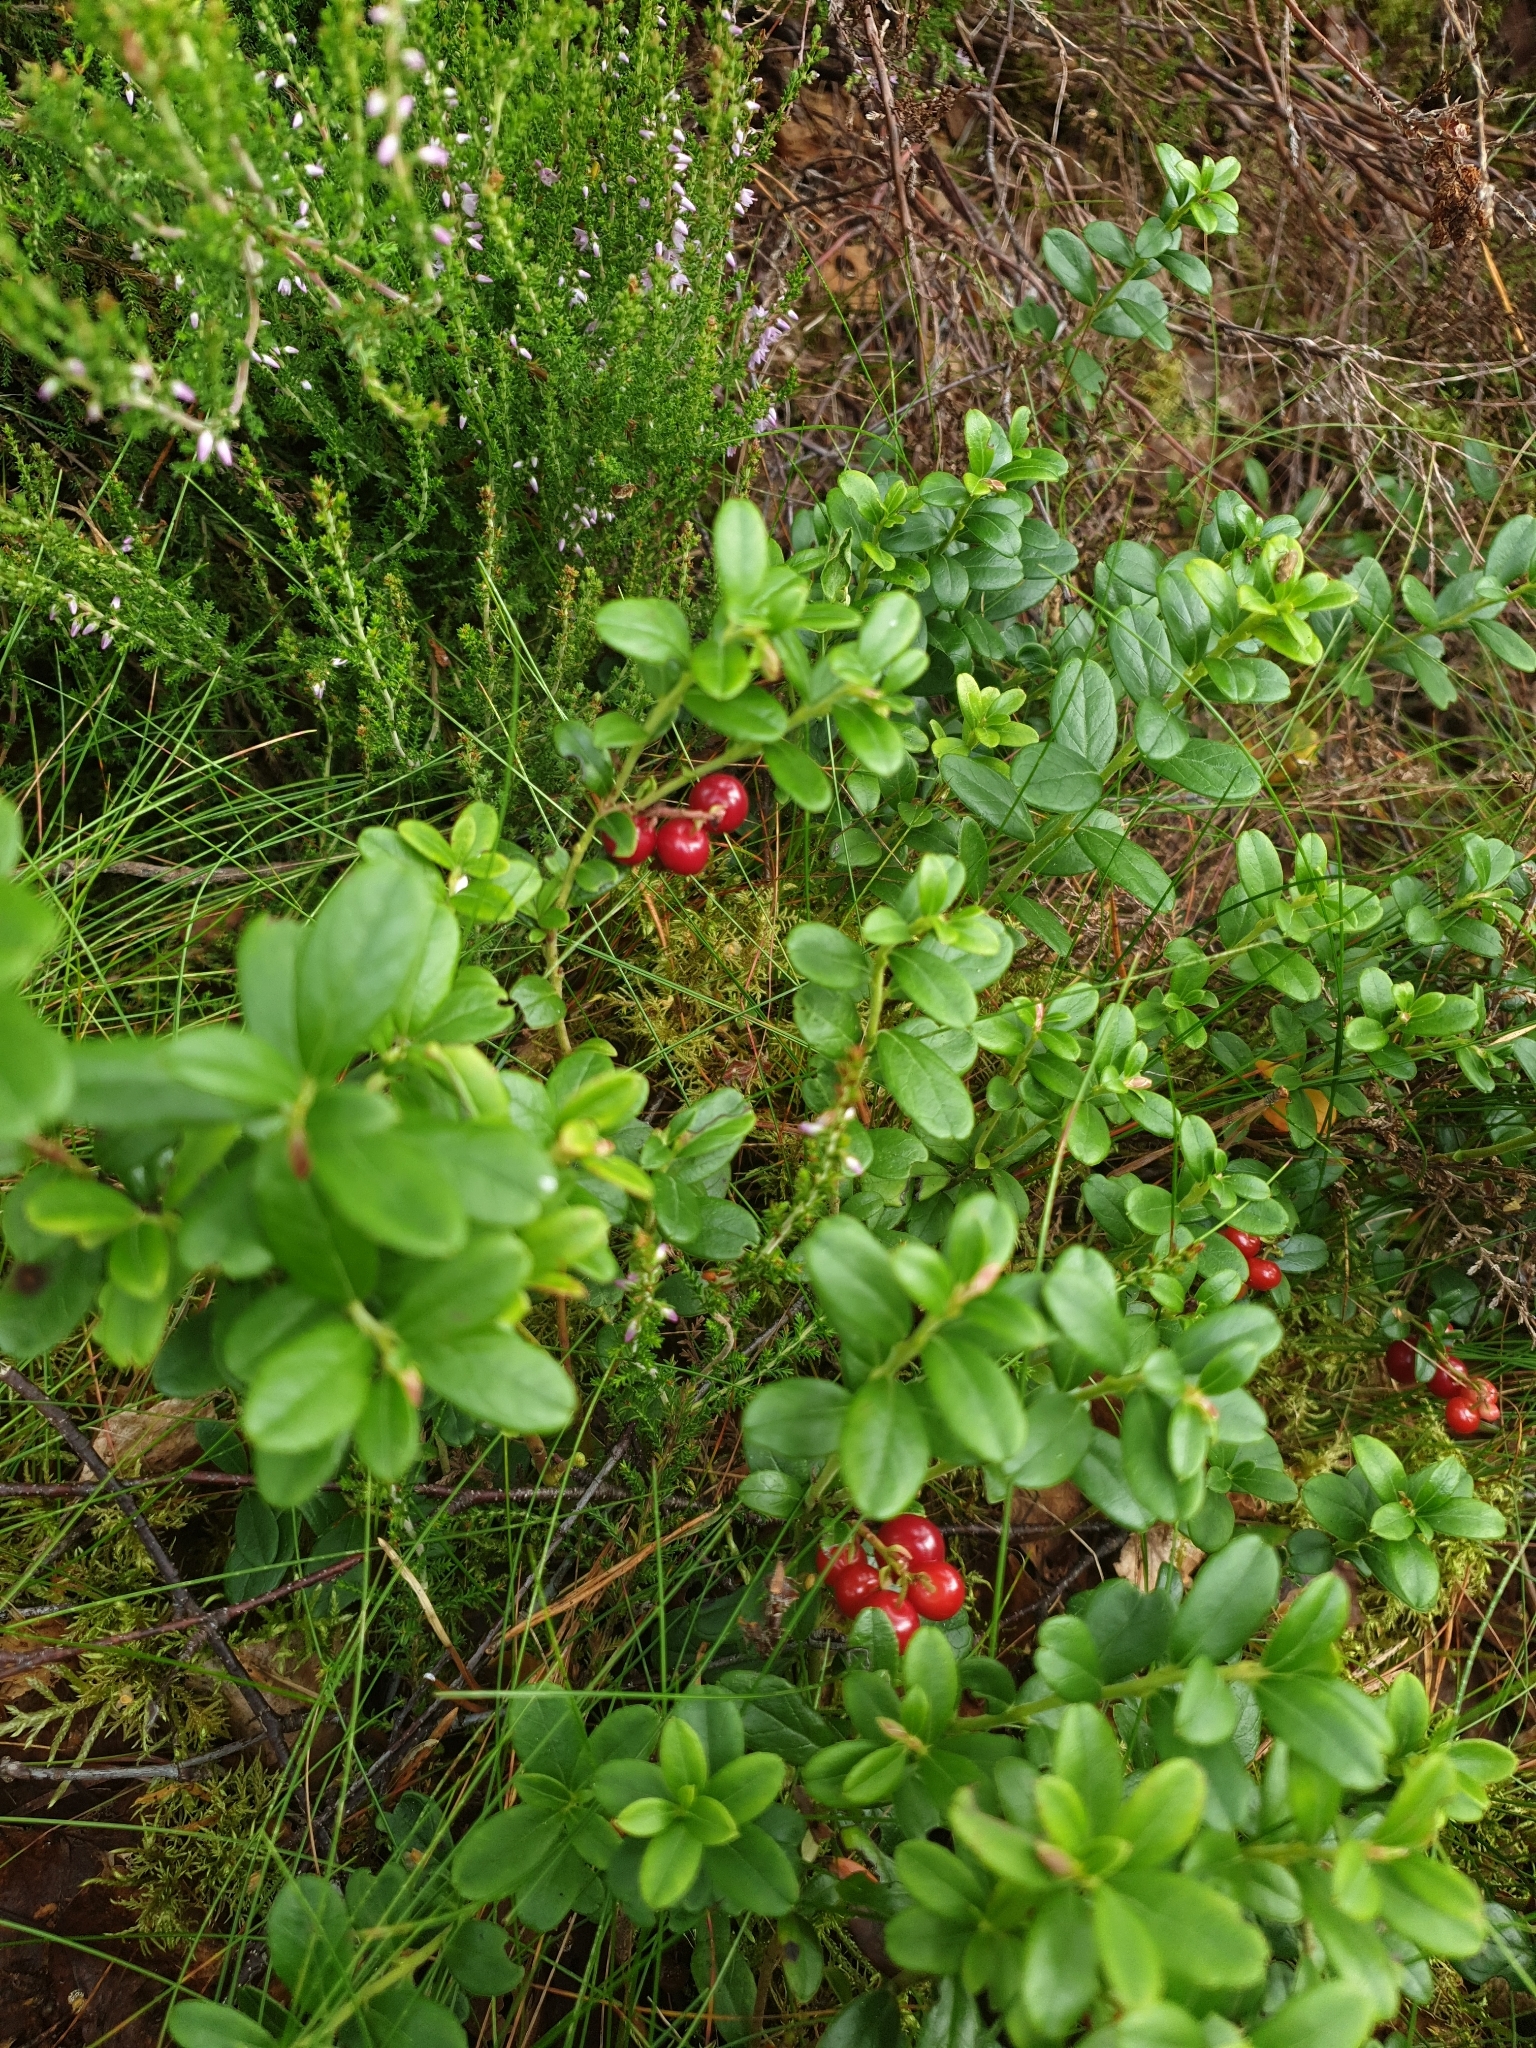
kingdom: Plantae
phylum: Tracheophyta
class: Magnoliopsida
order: Ericales
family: Ericaceae
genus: Vaccinium
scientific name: Vaccinium vitis-idaea
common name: Cowberry
